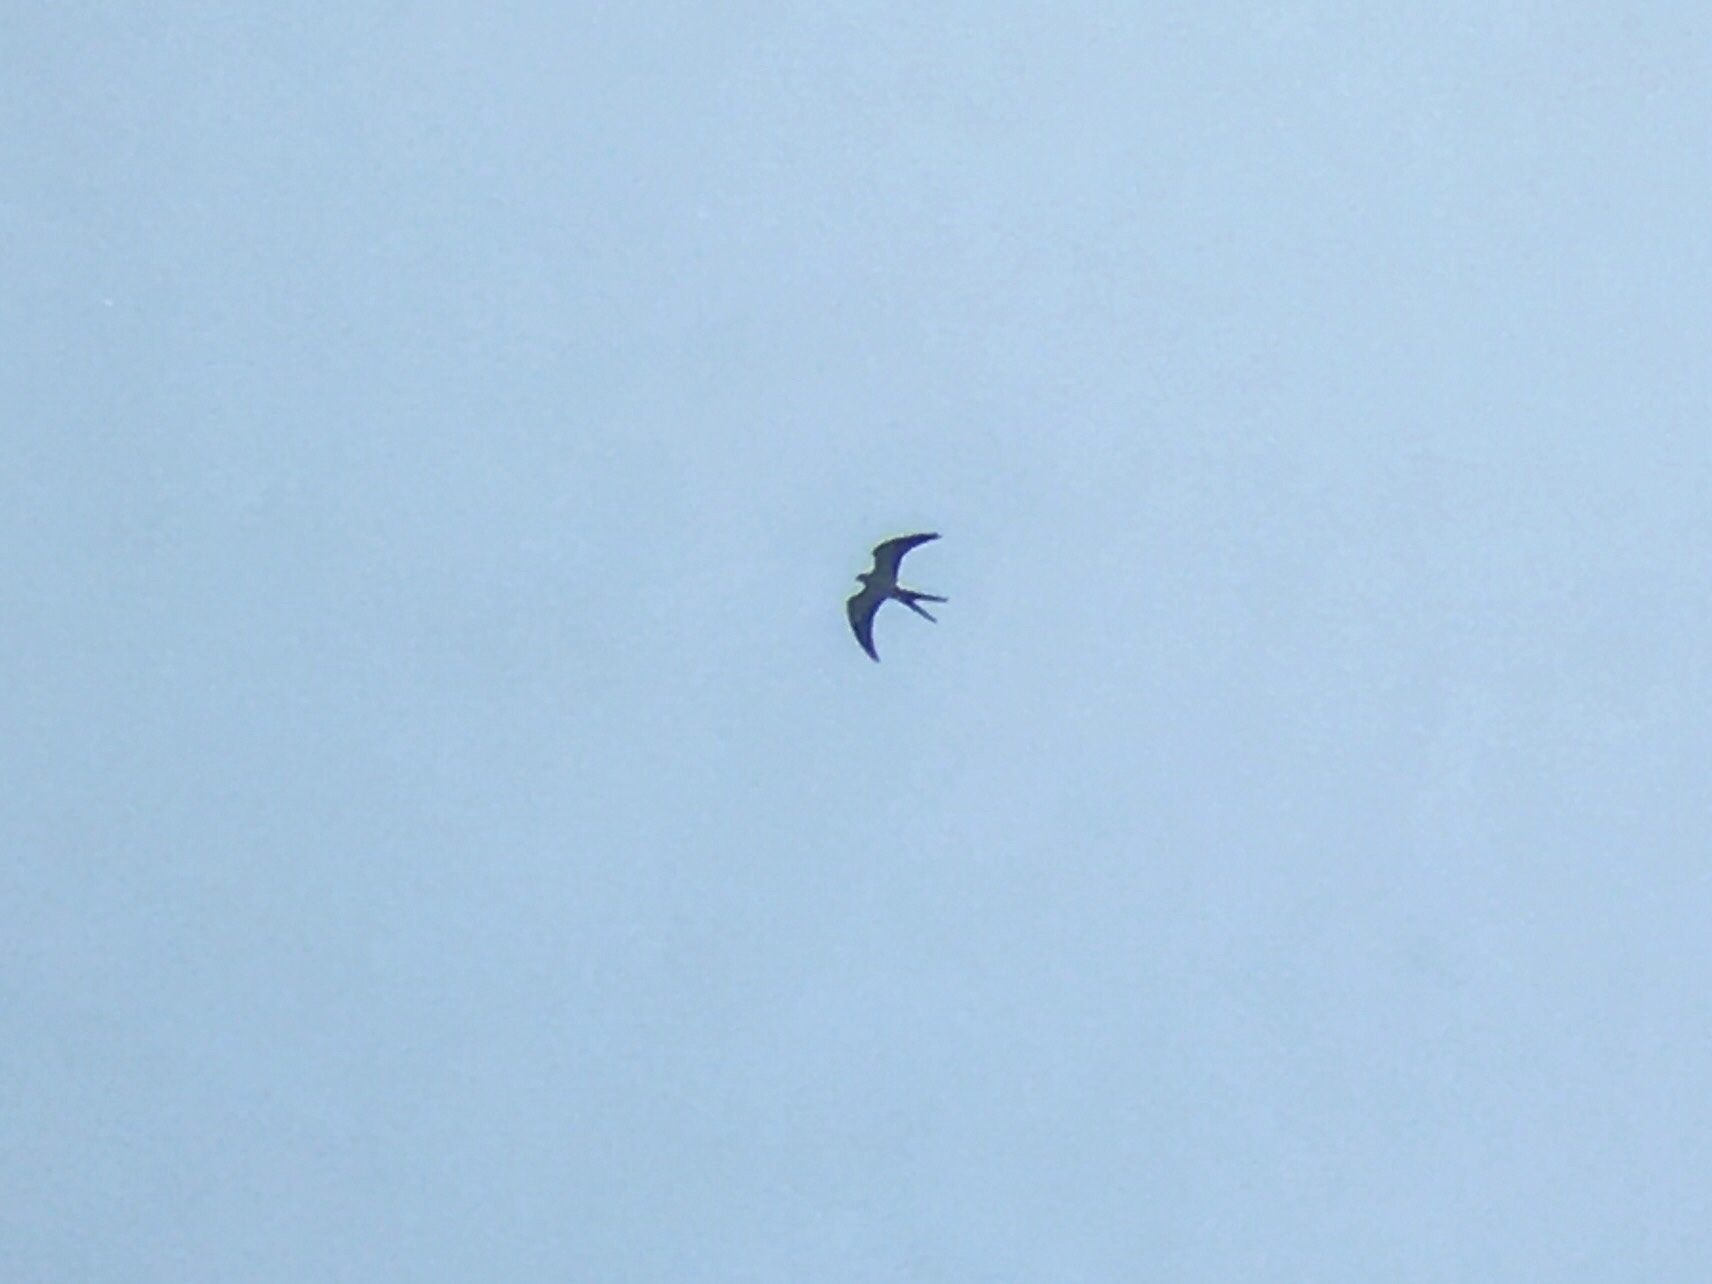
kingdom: Animalia
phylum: Chordata
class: Aves
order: Accipitriformes
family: Accipitridae
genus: Elanoides
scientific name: Elanoides forficatus
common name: Swallow-tailed kite
